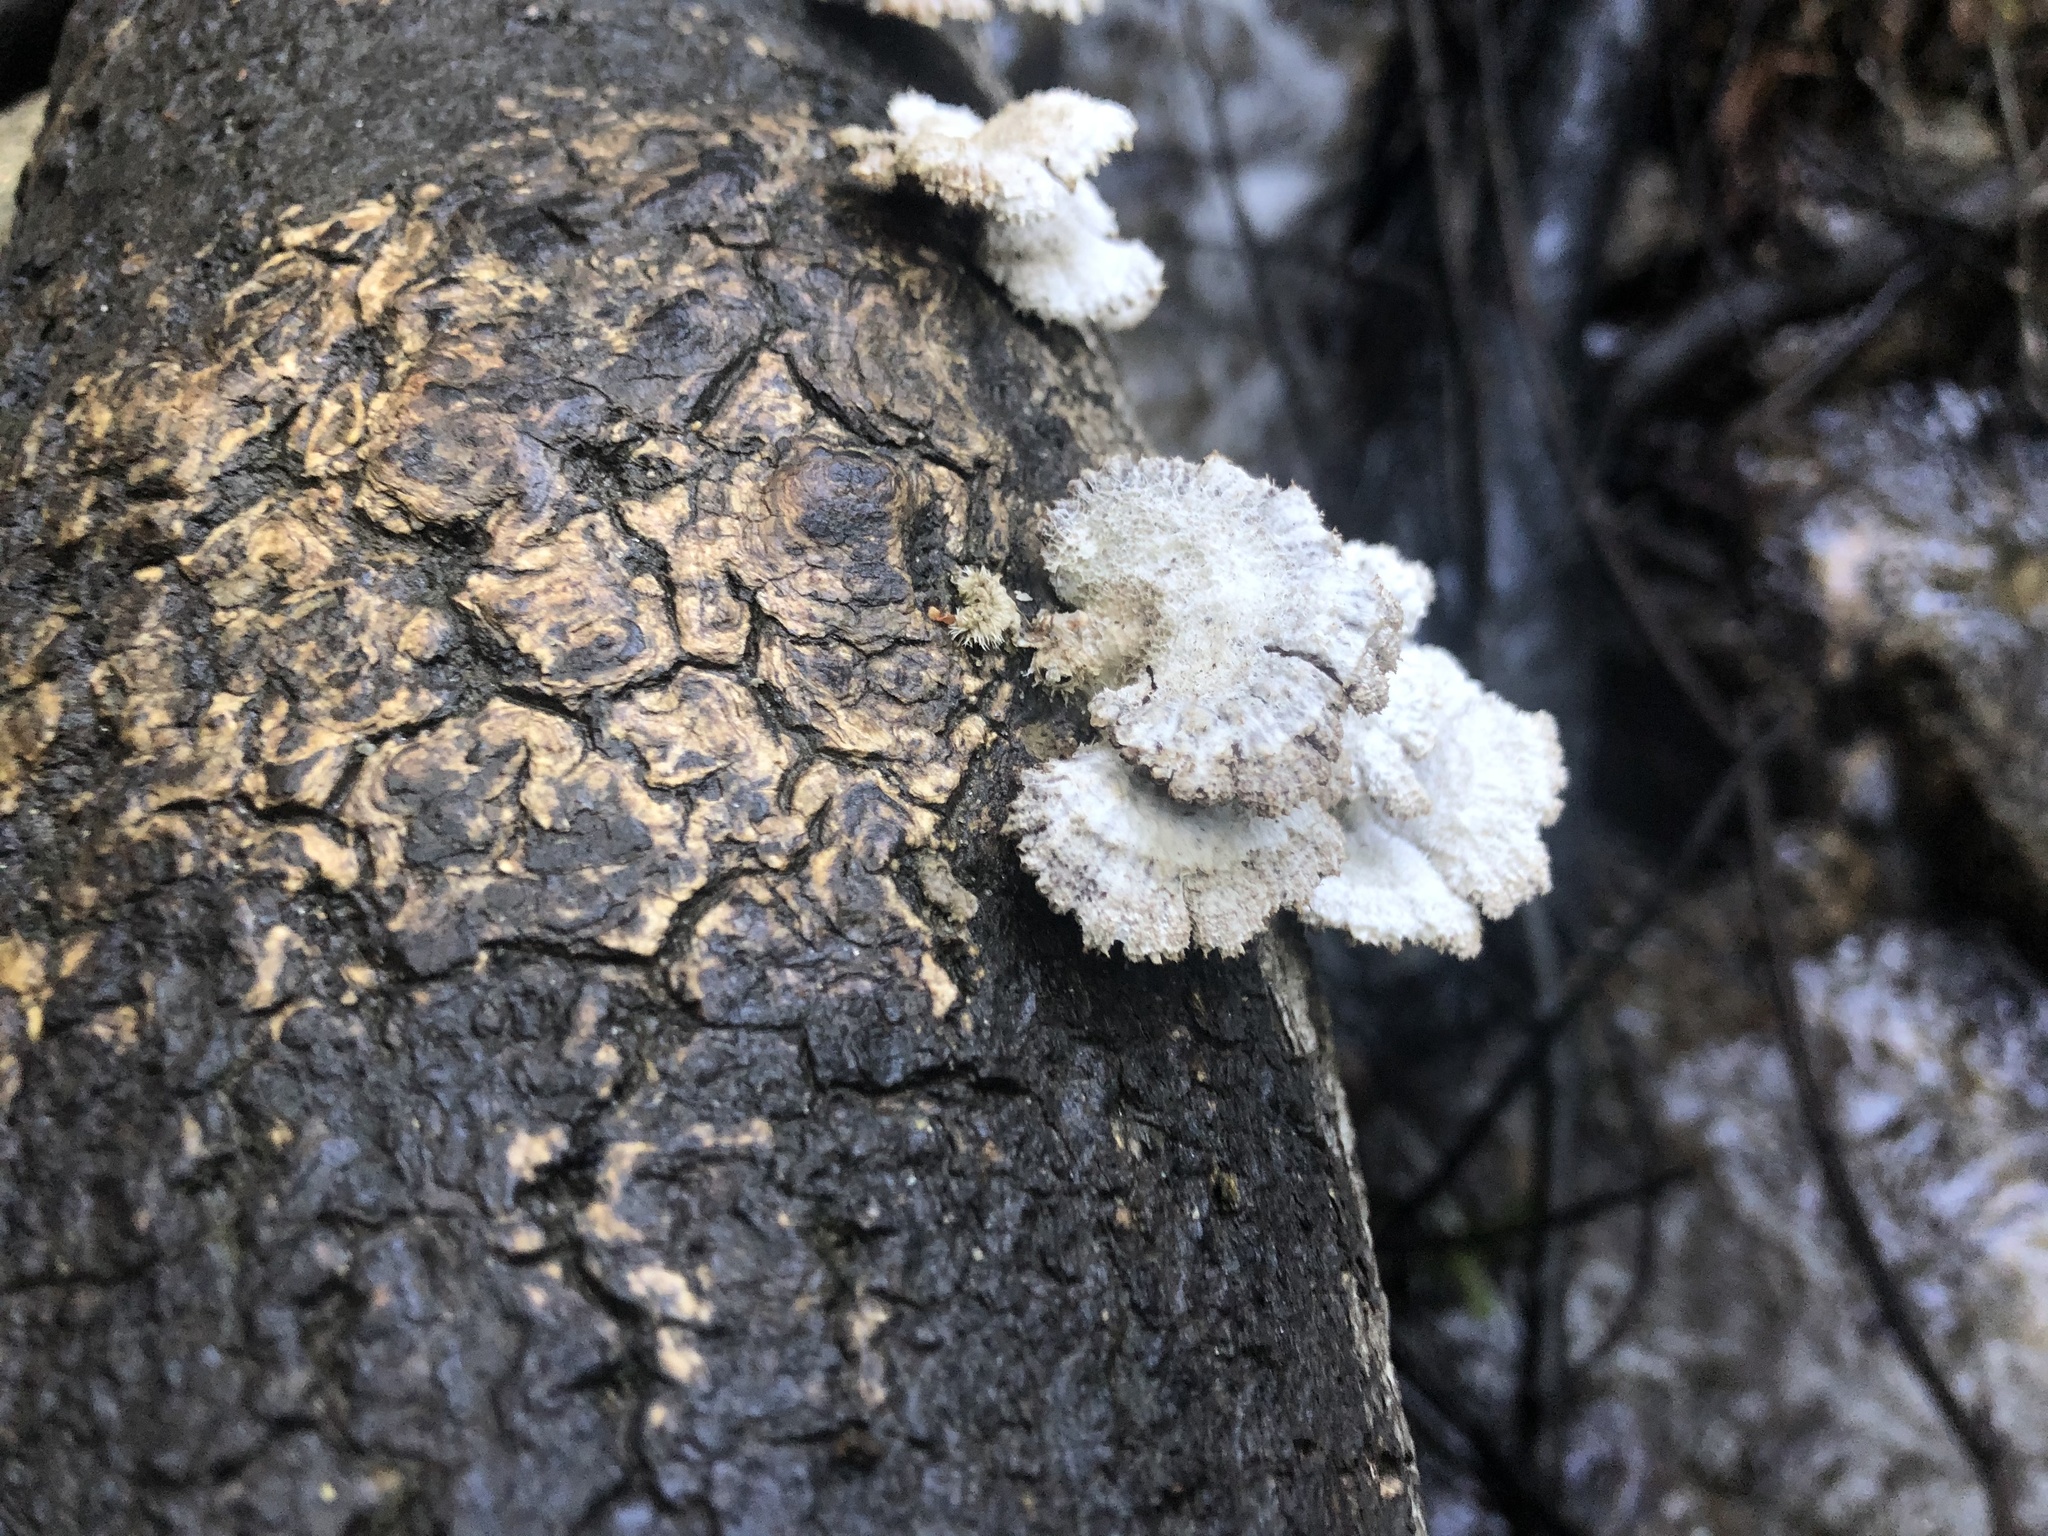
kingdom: Fungi
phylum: Basidiomycota
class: Agaricomycetes
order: Agaricales
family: Schizophyllaceae
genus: Schizophyllum
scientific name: Schizophyllum commune
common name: Common porecrust
